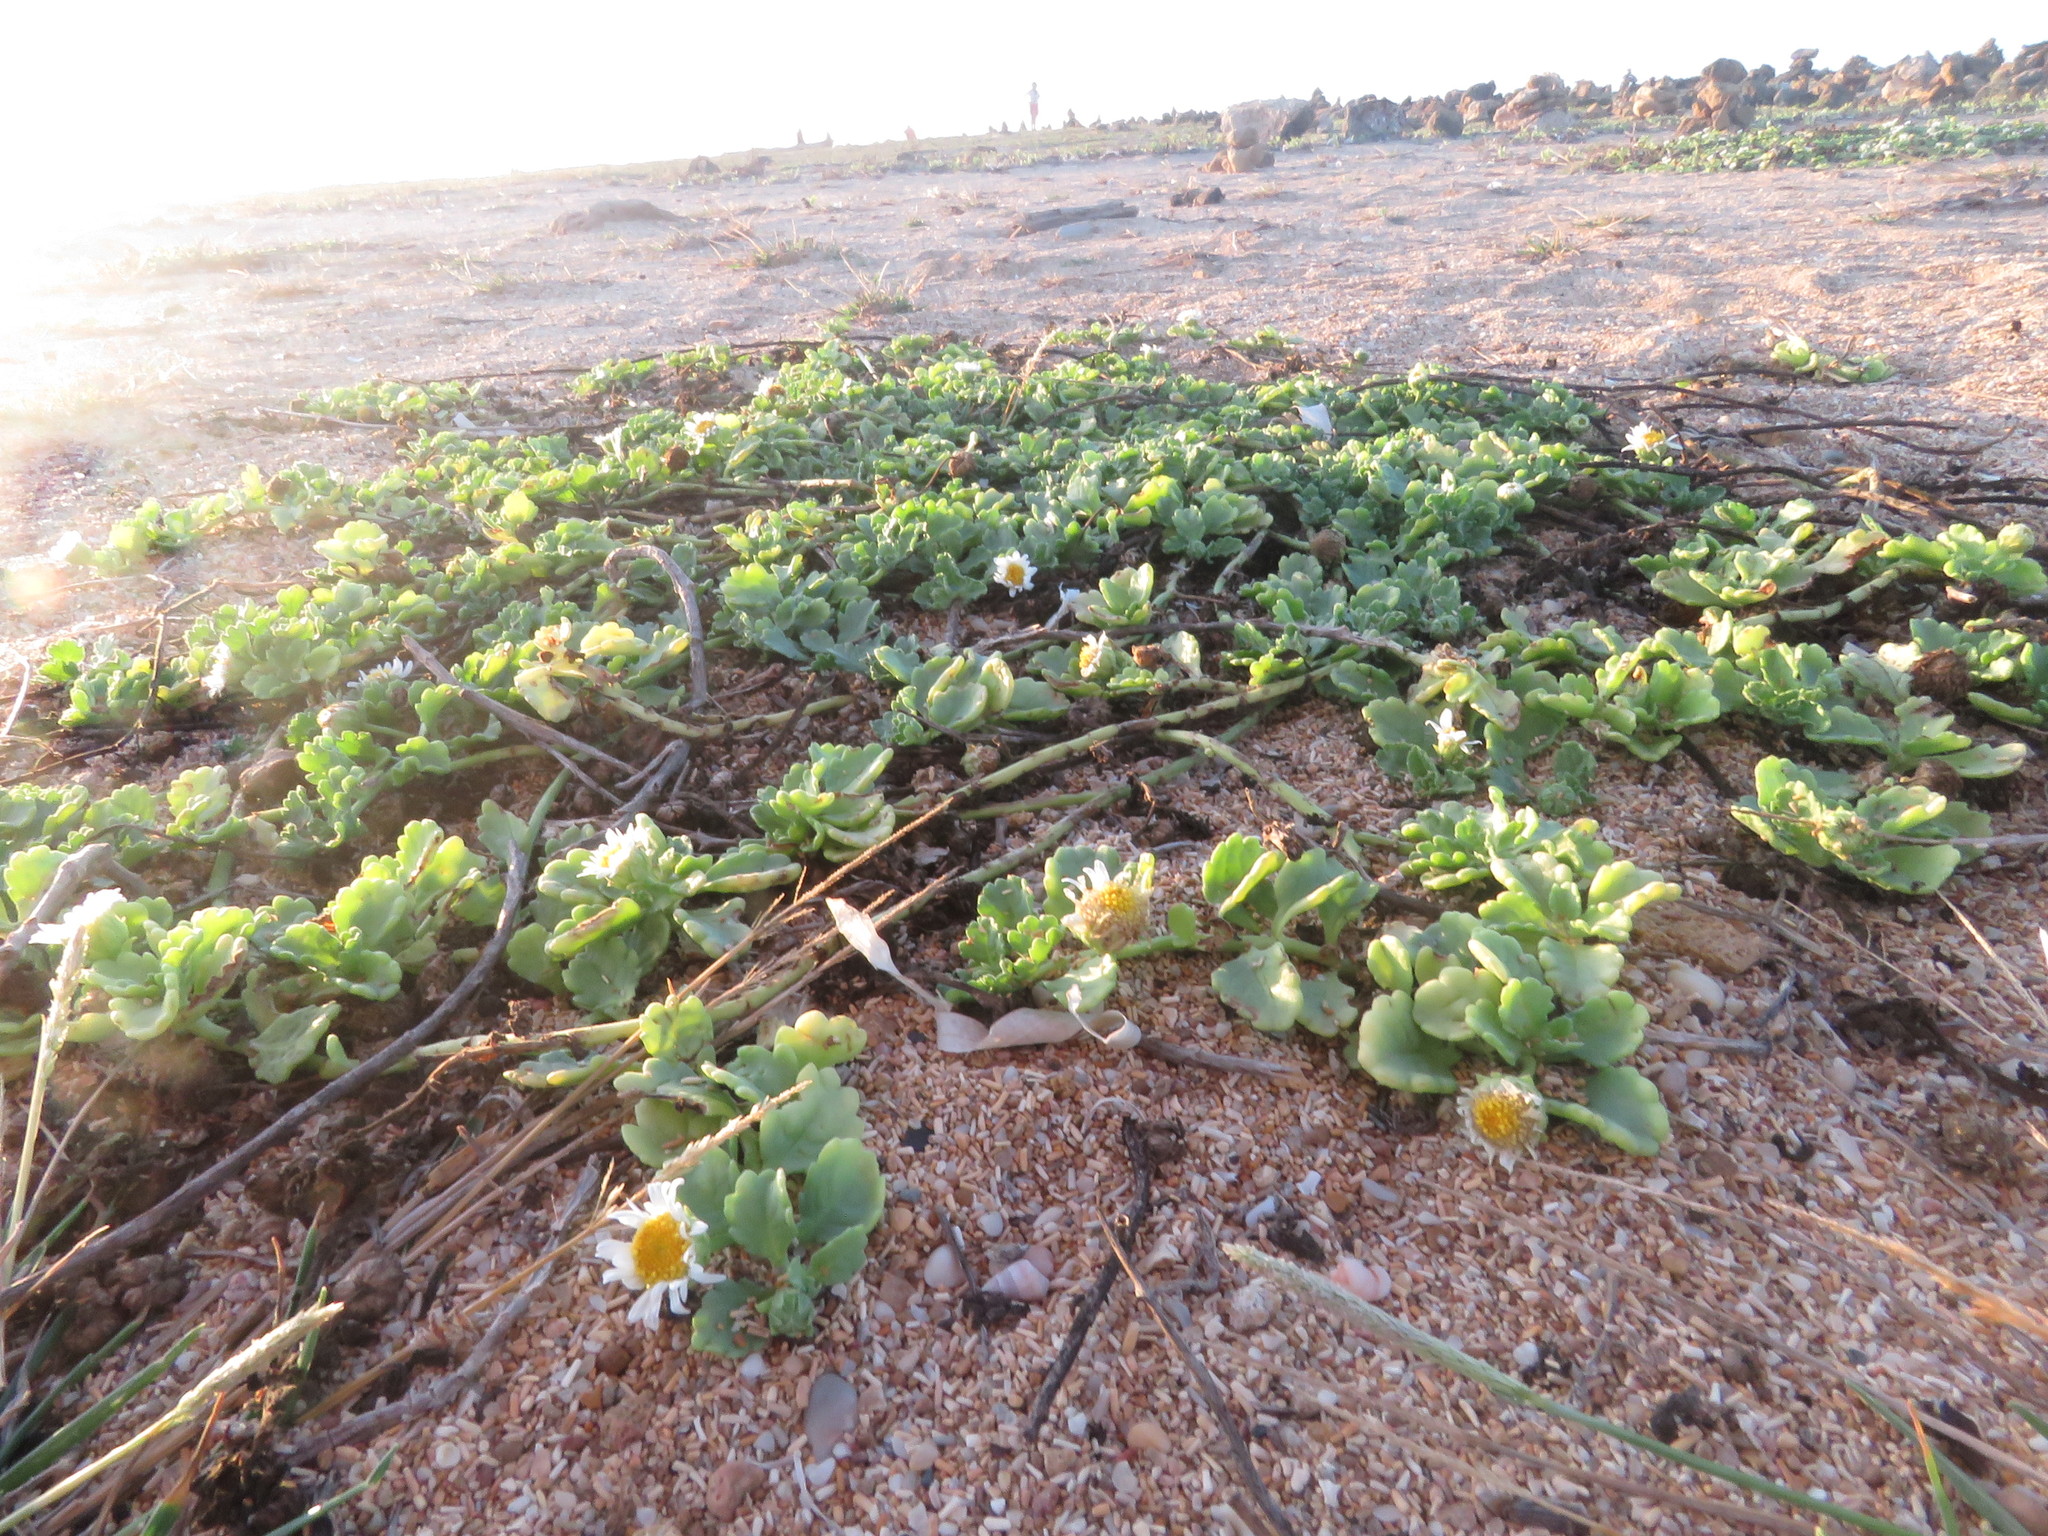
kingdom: Plantae
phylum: Tracheophyta
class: Magnoliopsida
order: Asterales
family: Asteraceae
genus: Egletes
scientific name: Egletes prostrata
